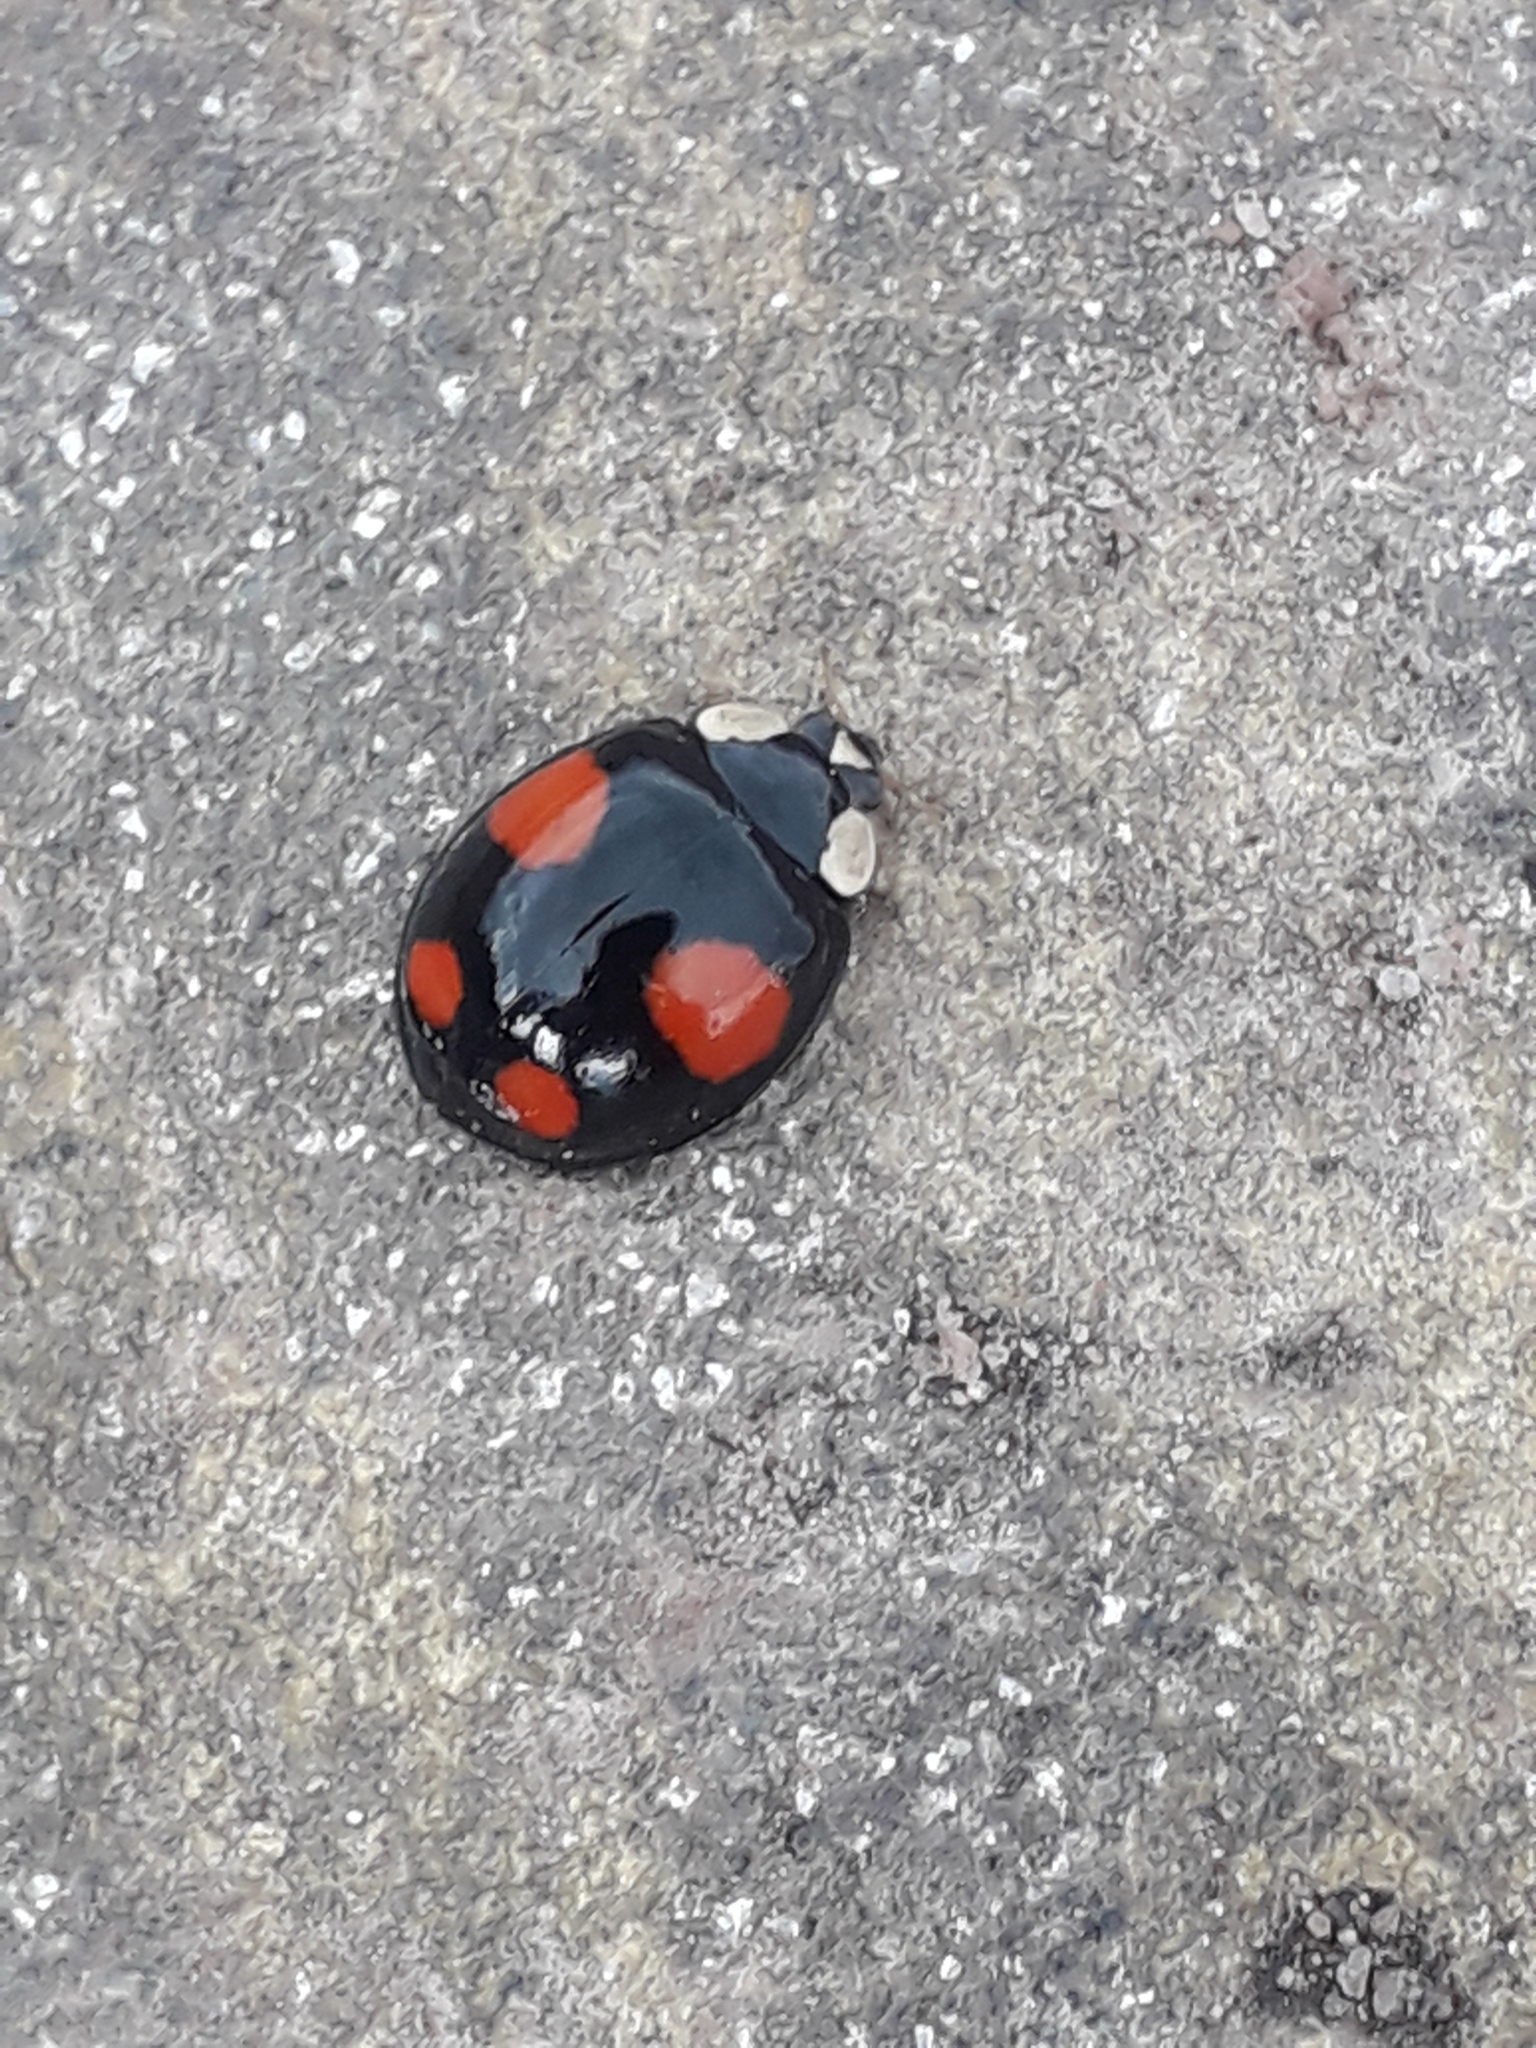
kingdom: Animalia
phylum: Arthropoda
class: Insecta
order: Coleoptera
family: Coccinellidae
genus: Harmonia
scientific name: Harmonia axyridis
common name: Harlequin ladybird
